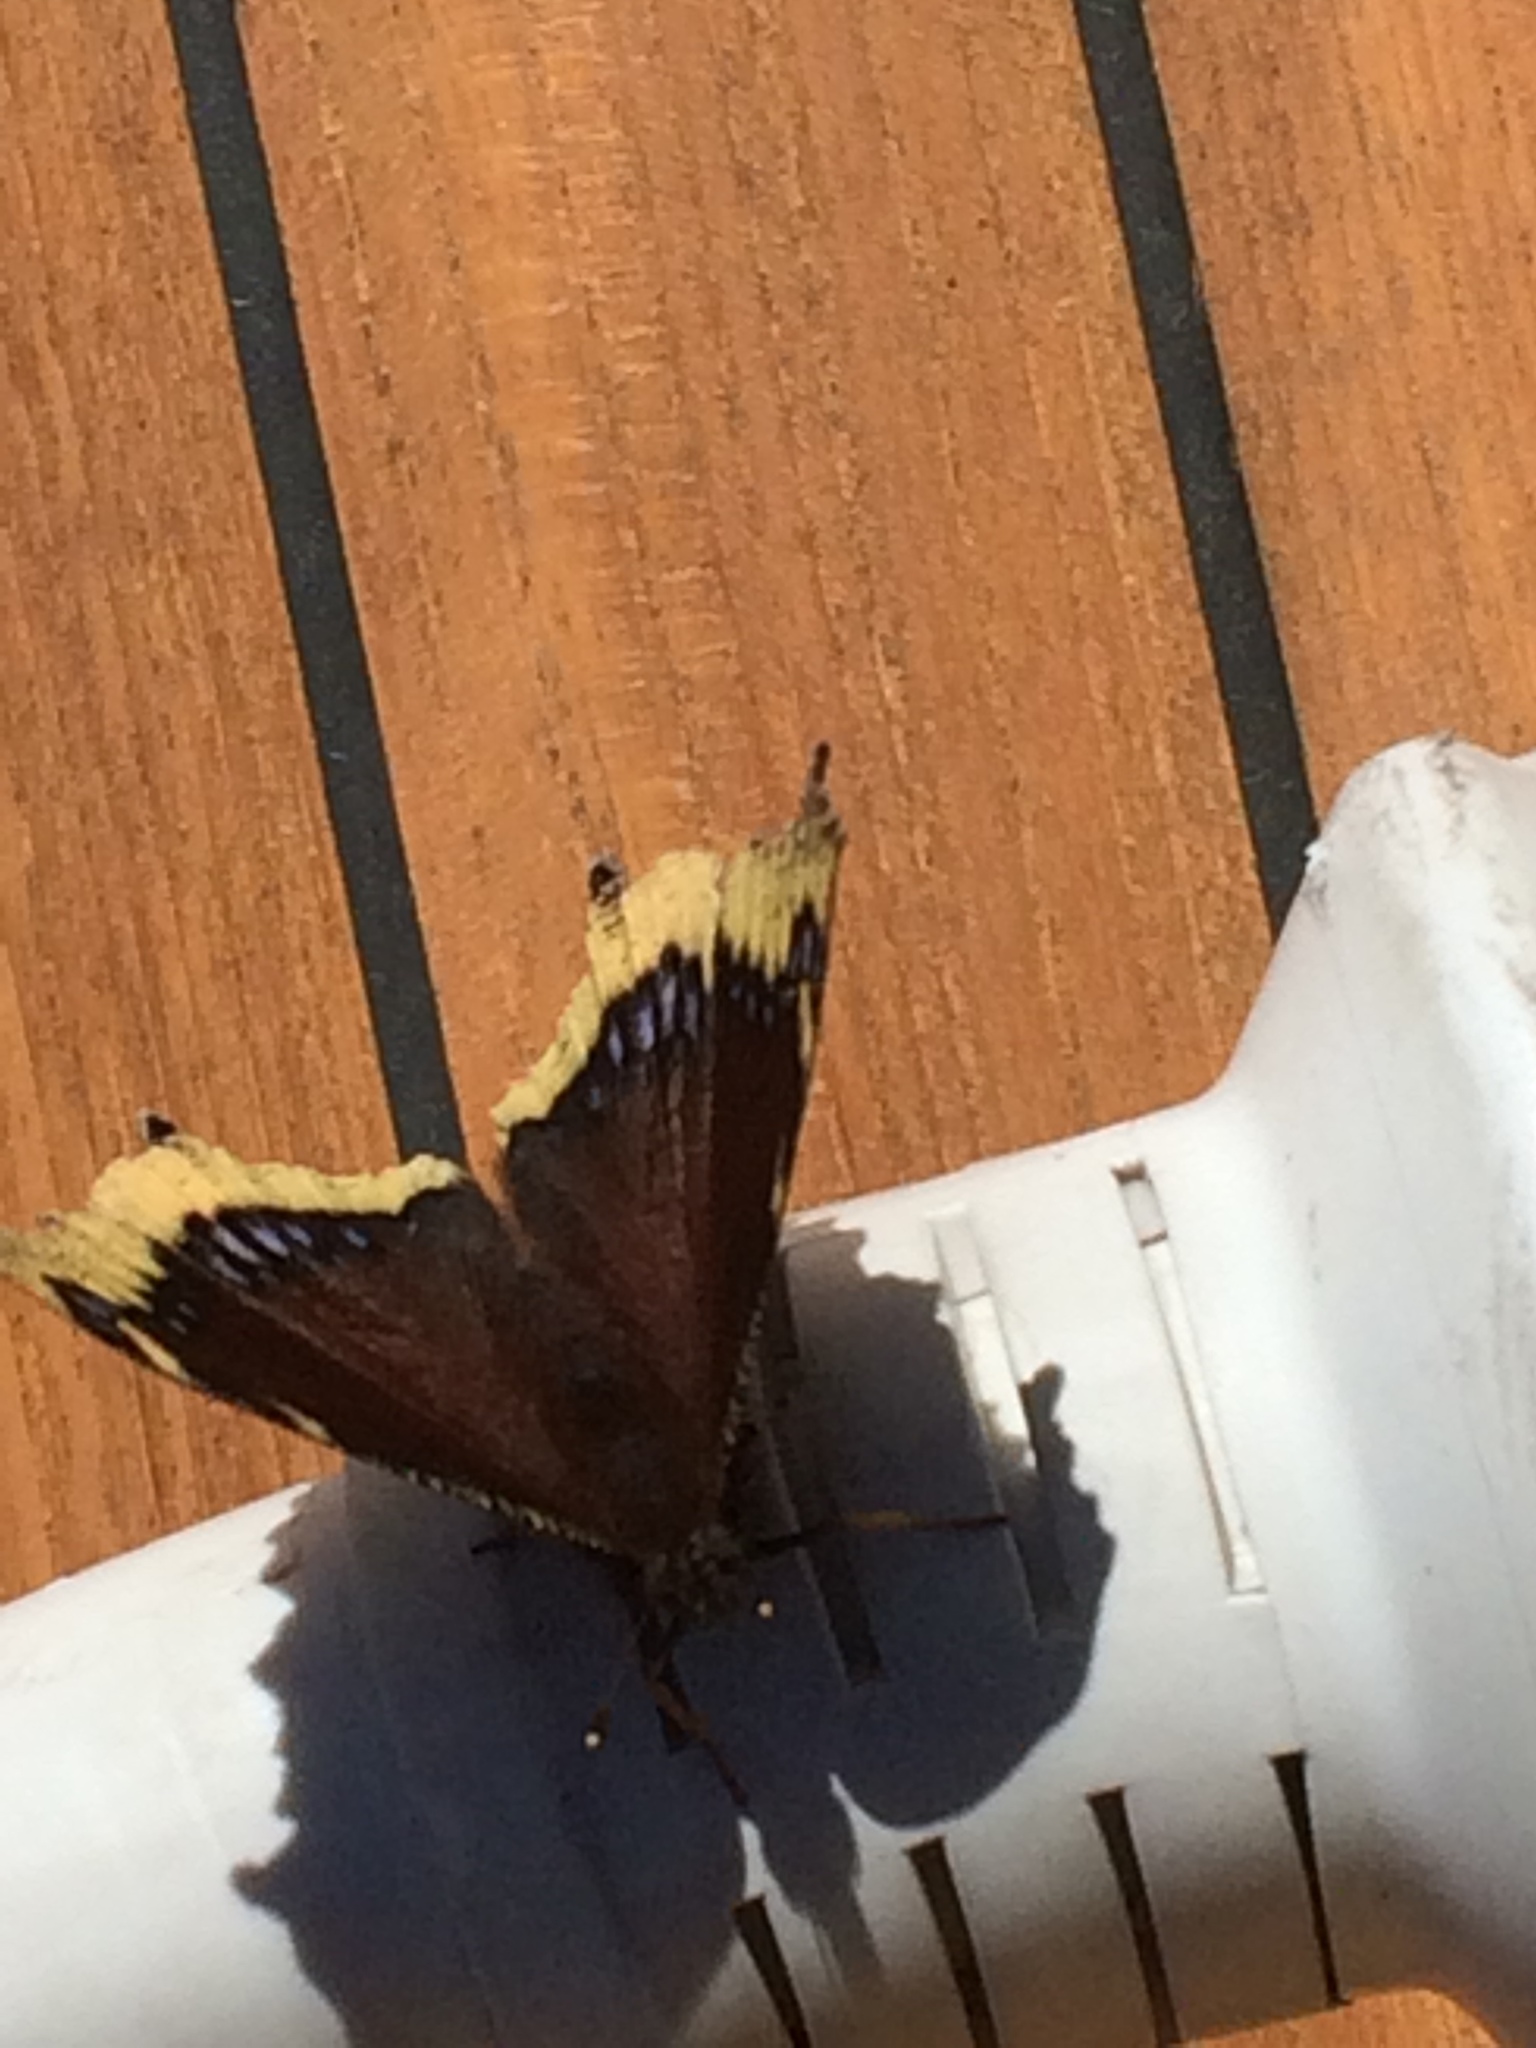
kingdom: Animalia
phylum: Arthropoda
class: Insecta
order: Lepidoptera
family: Nymphalidae
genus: Nymphalis
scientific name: Nymphalis antiopa
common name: Camberwell beauty
